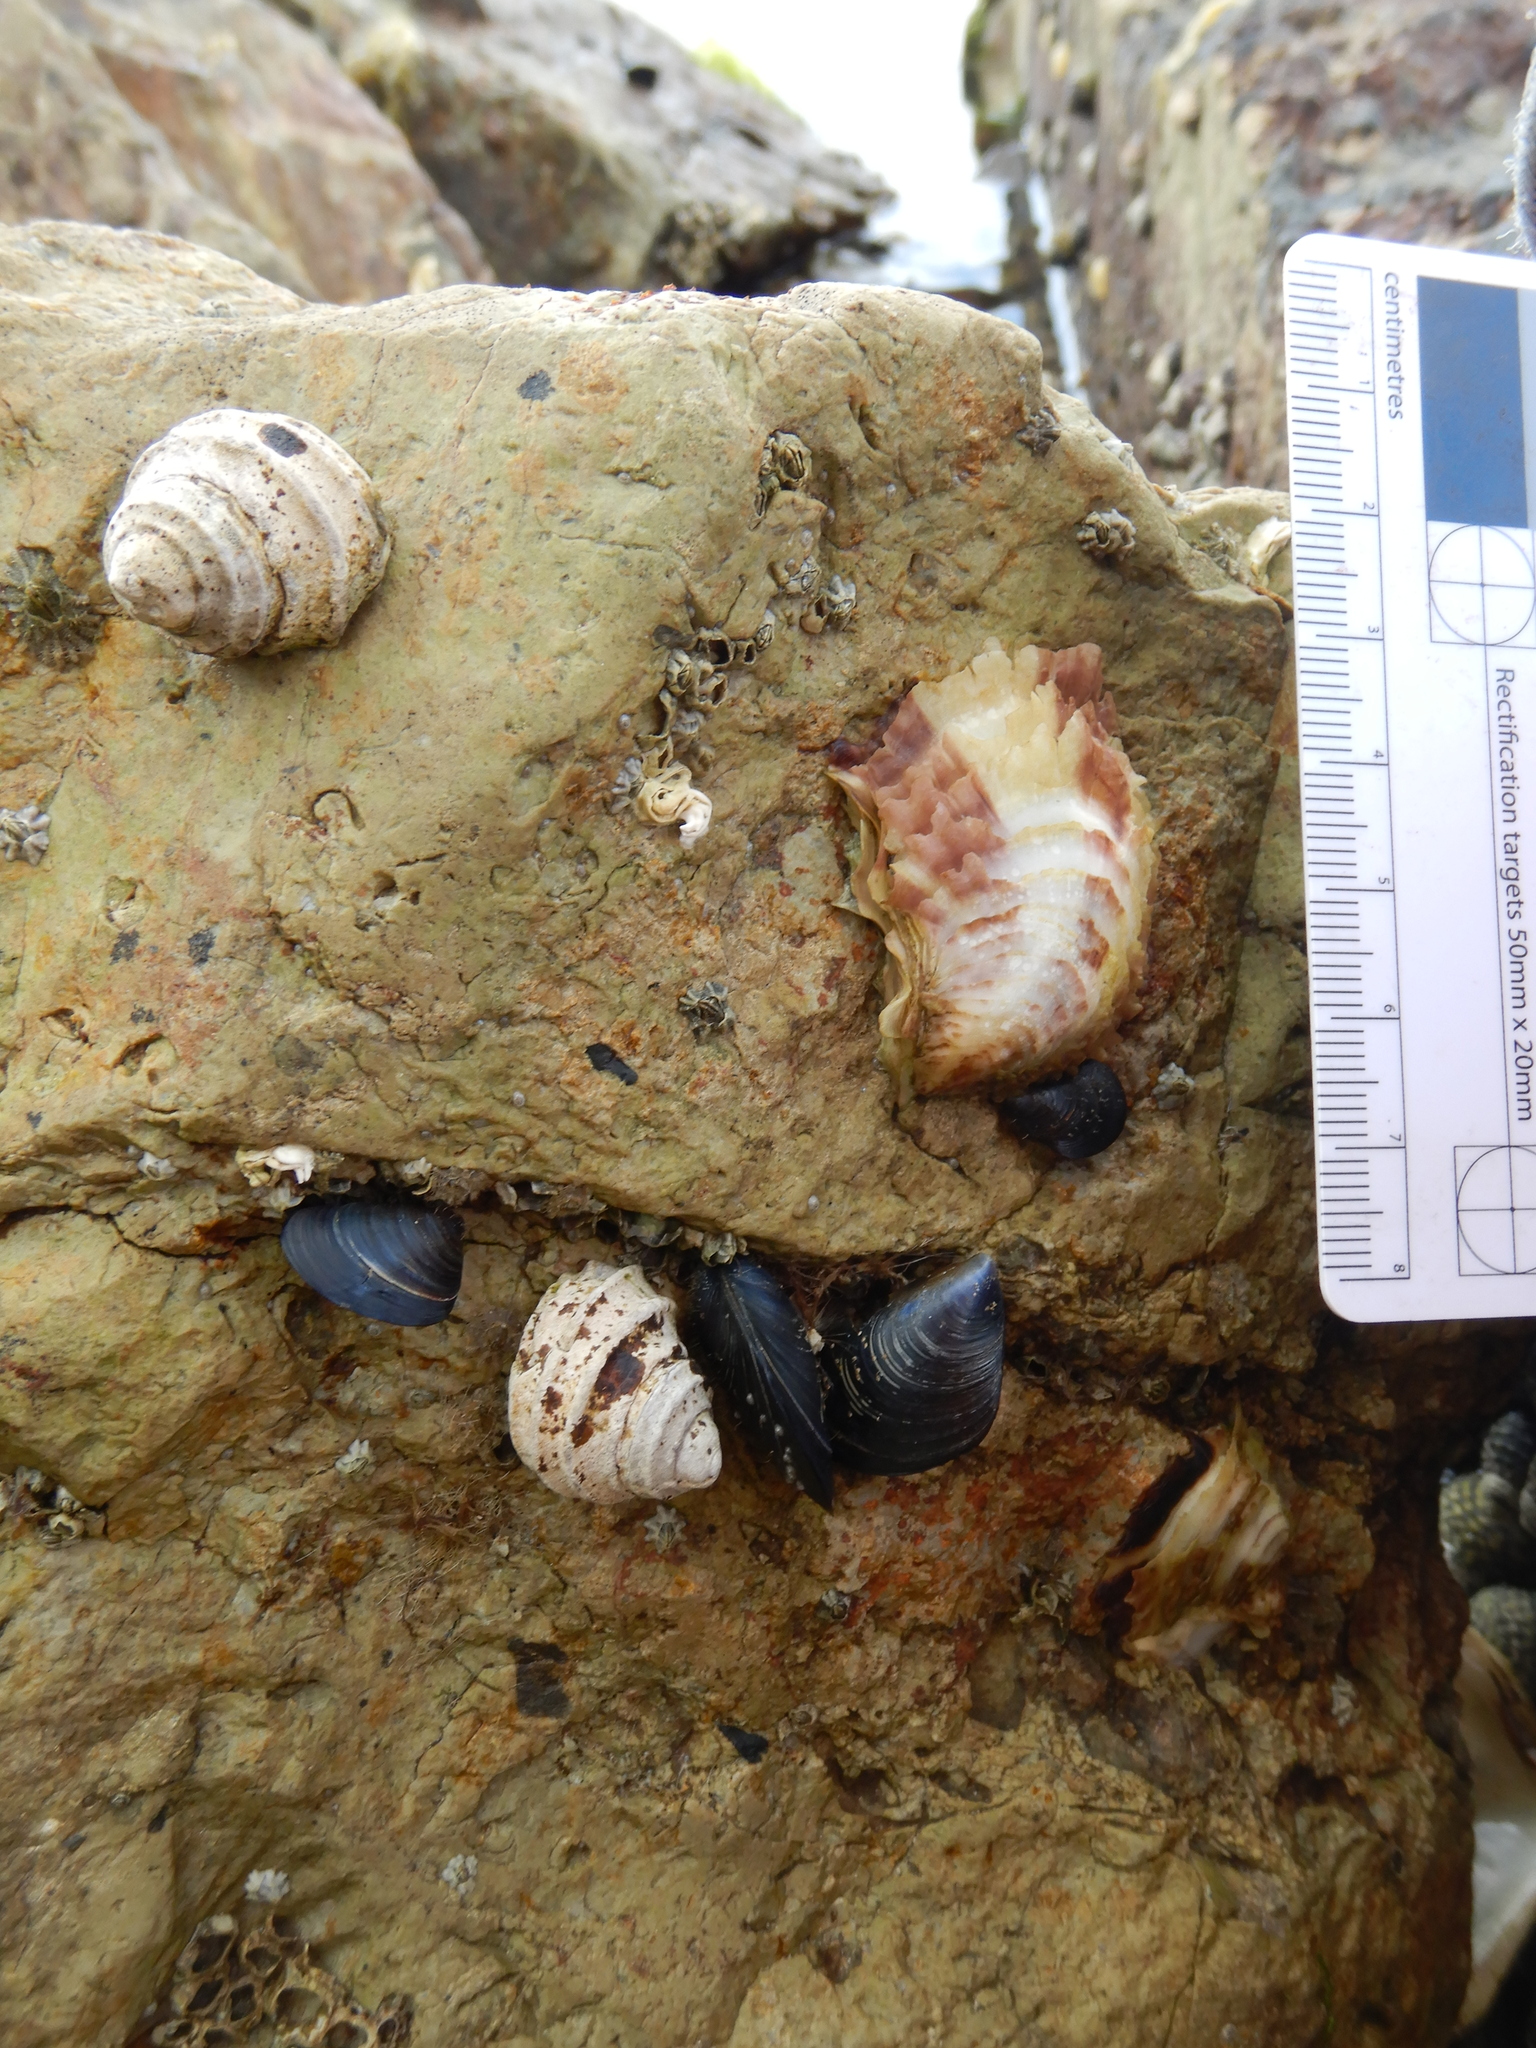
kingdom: Animalia
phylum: Mollusca
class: Bivalvia
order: Ostreida
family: Ostreidae
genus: Magallana
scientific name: Magallana gigas
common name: Pacific oyster
